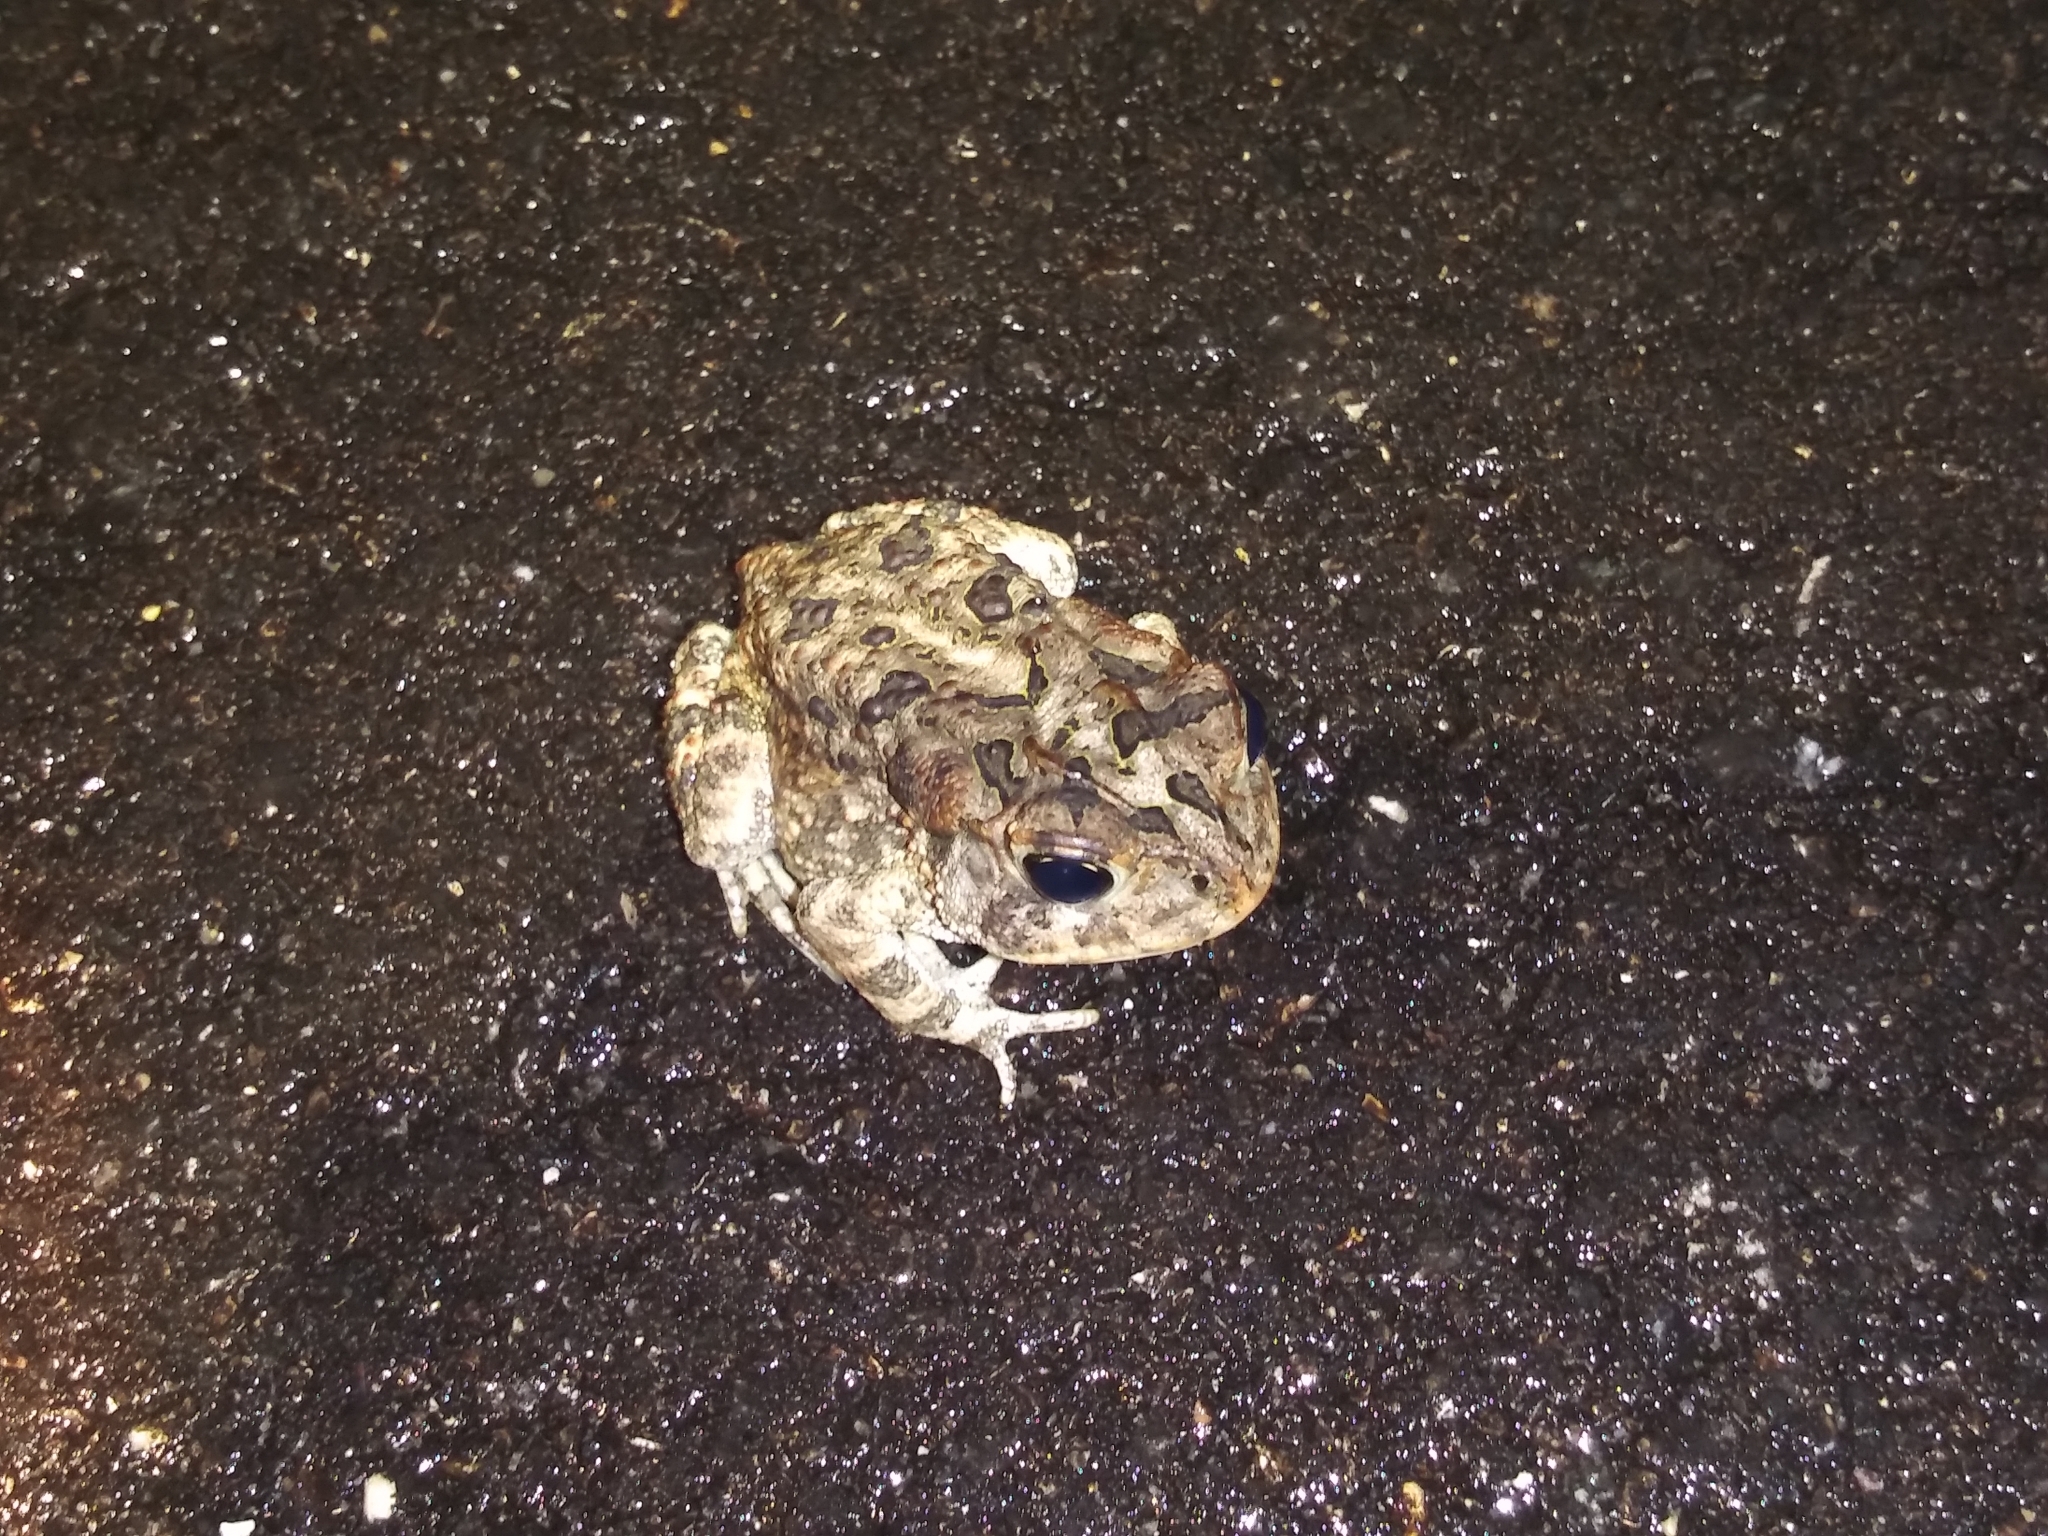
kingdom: Animalia
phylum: Chordata
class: Amphibia
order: Anura
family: Bufonidae
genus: Anaxyrus
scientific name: Anaxyrus terrestris
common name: Southern toad
